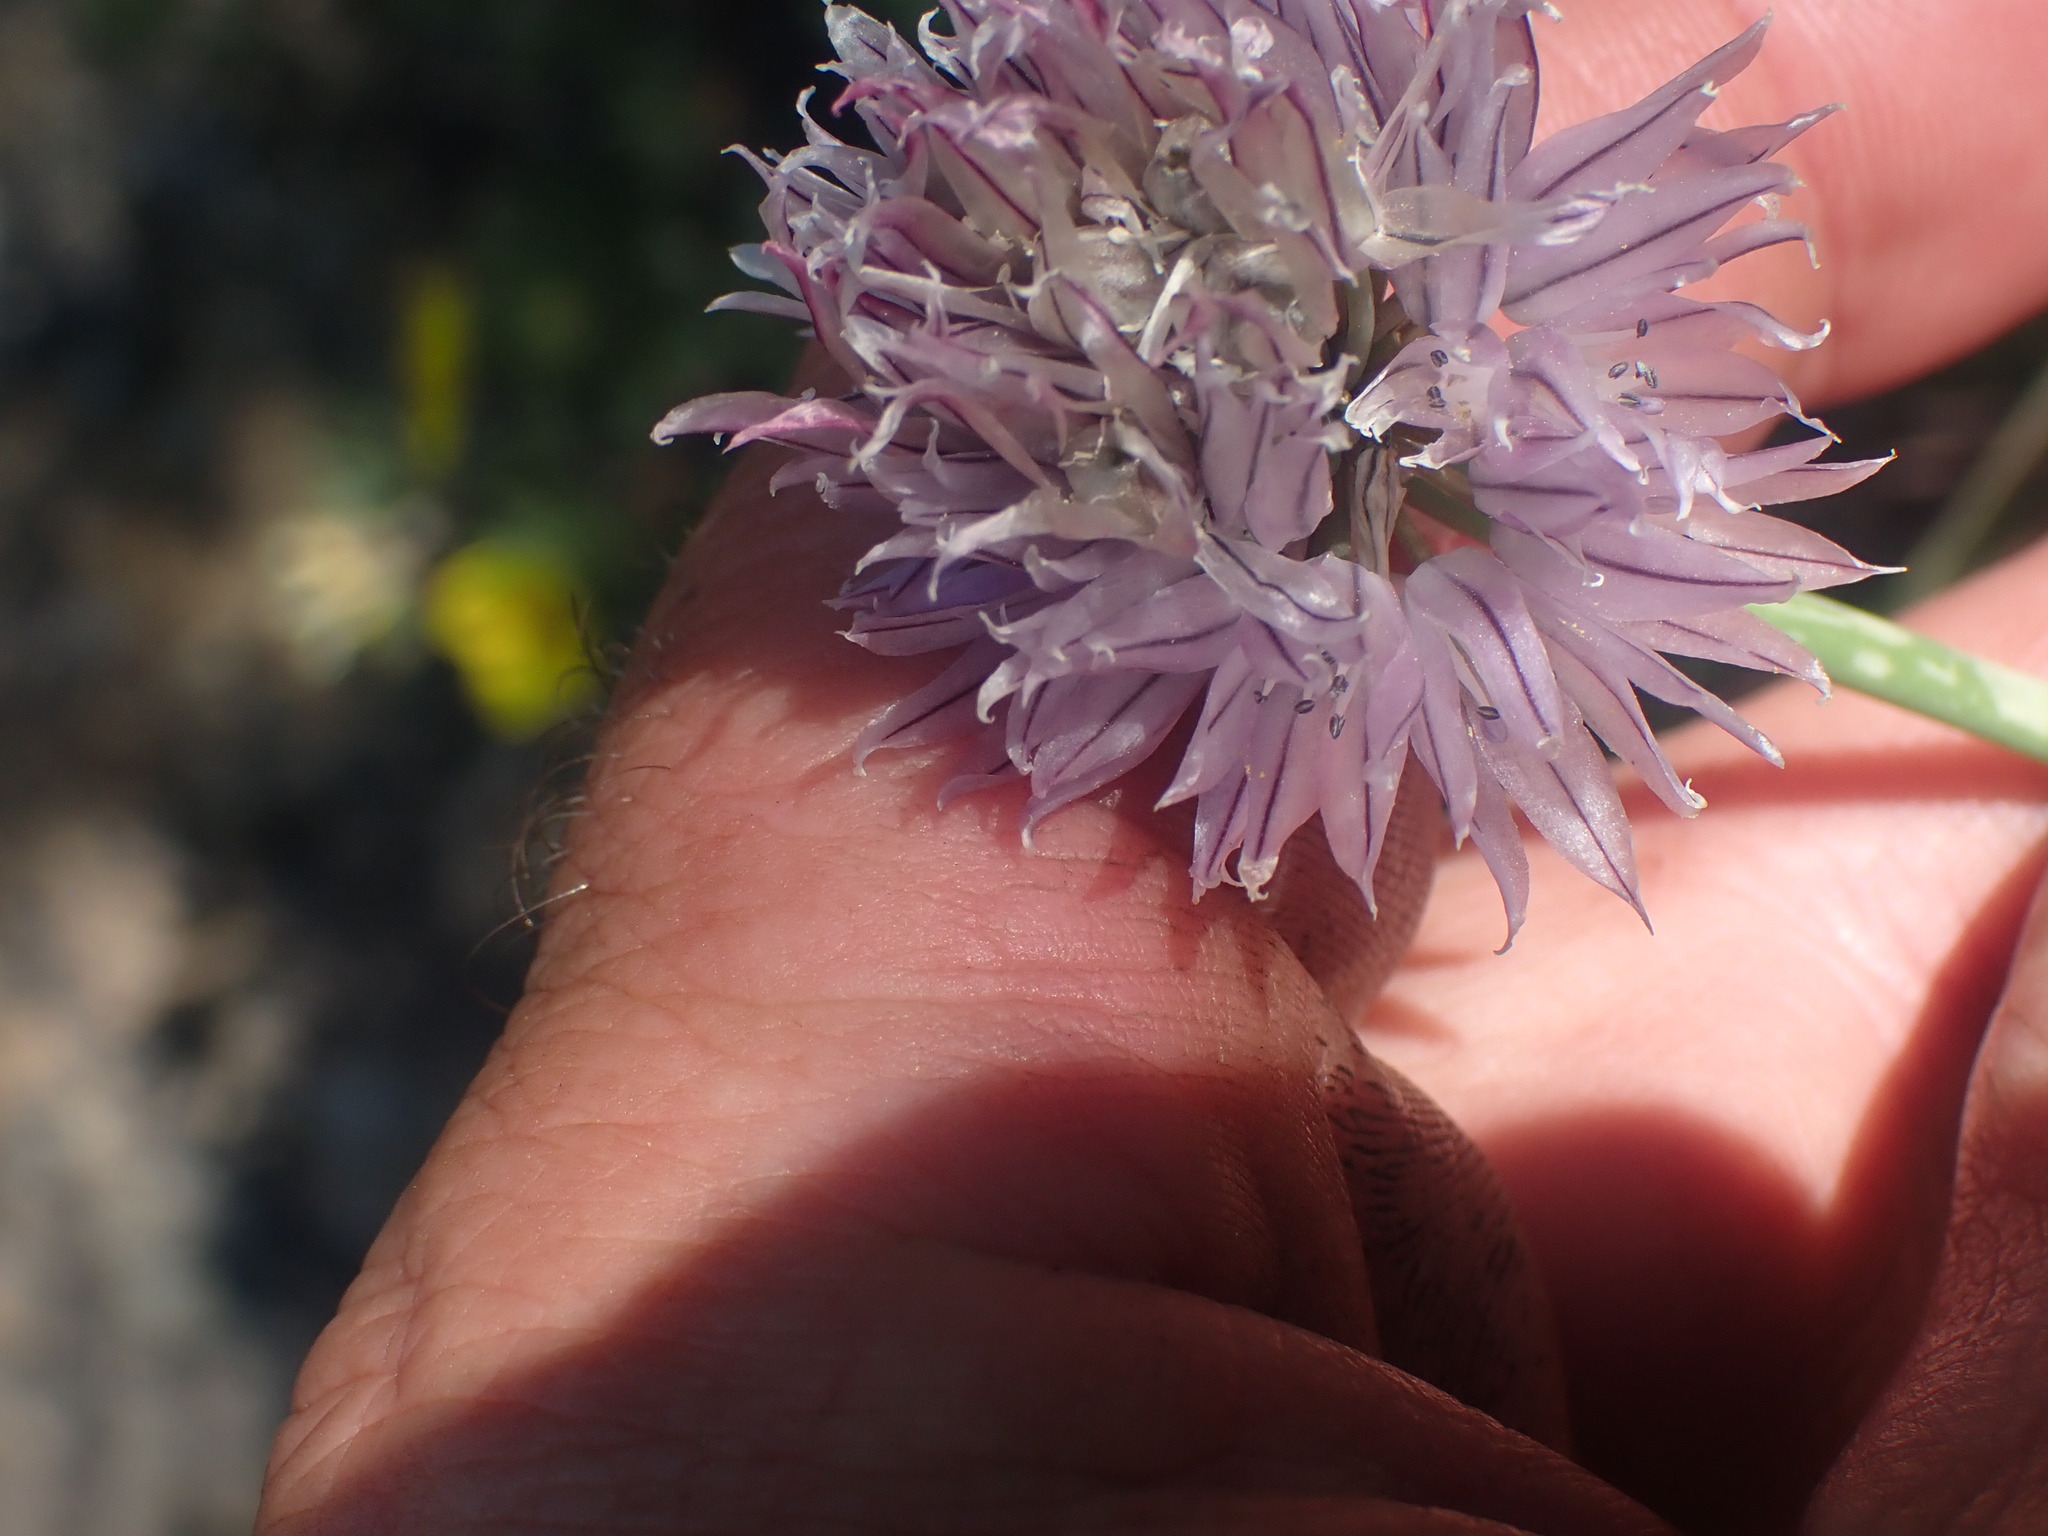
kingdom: Plantae
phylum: Tracheophyta
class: Liliopsida
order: Asparagales
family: Amaryllidaceae
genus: Allium
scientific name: Allium schoenoprasum
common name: Chives
